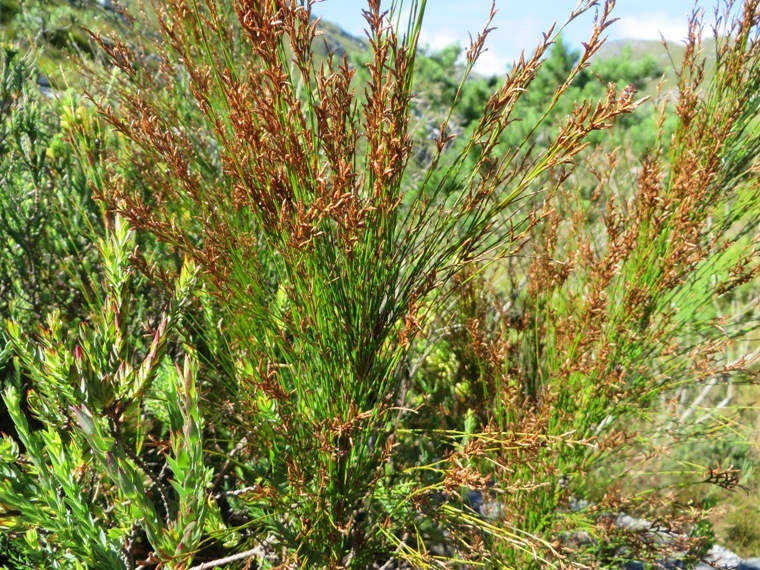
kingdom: Plantae
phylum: Tracheophyta
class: Liliopsida
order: Poales
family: Restionaceae
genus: Restio
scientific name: Restio subverticillatus
